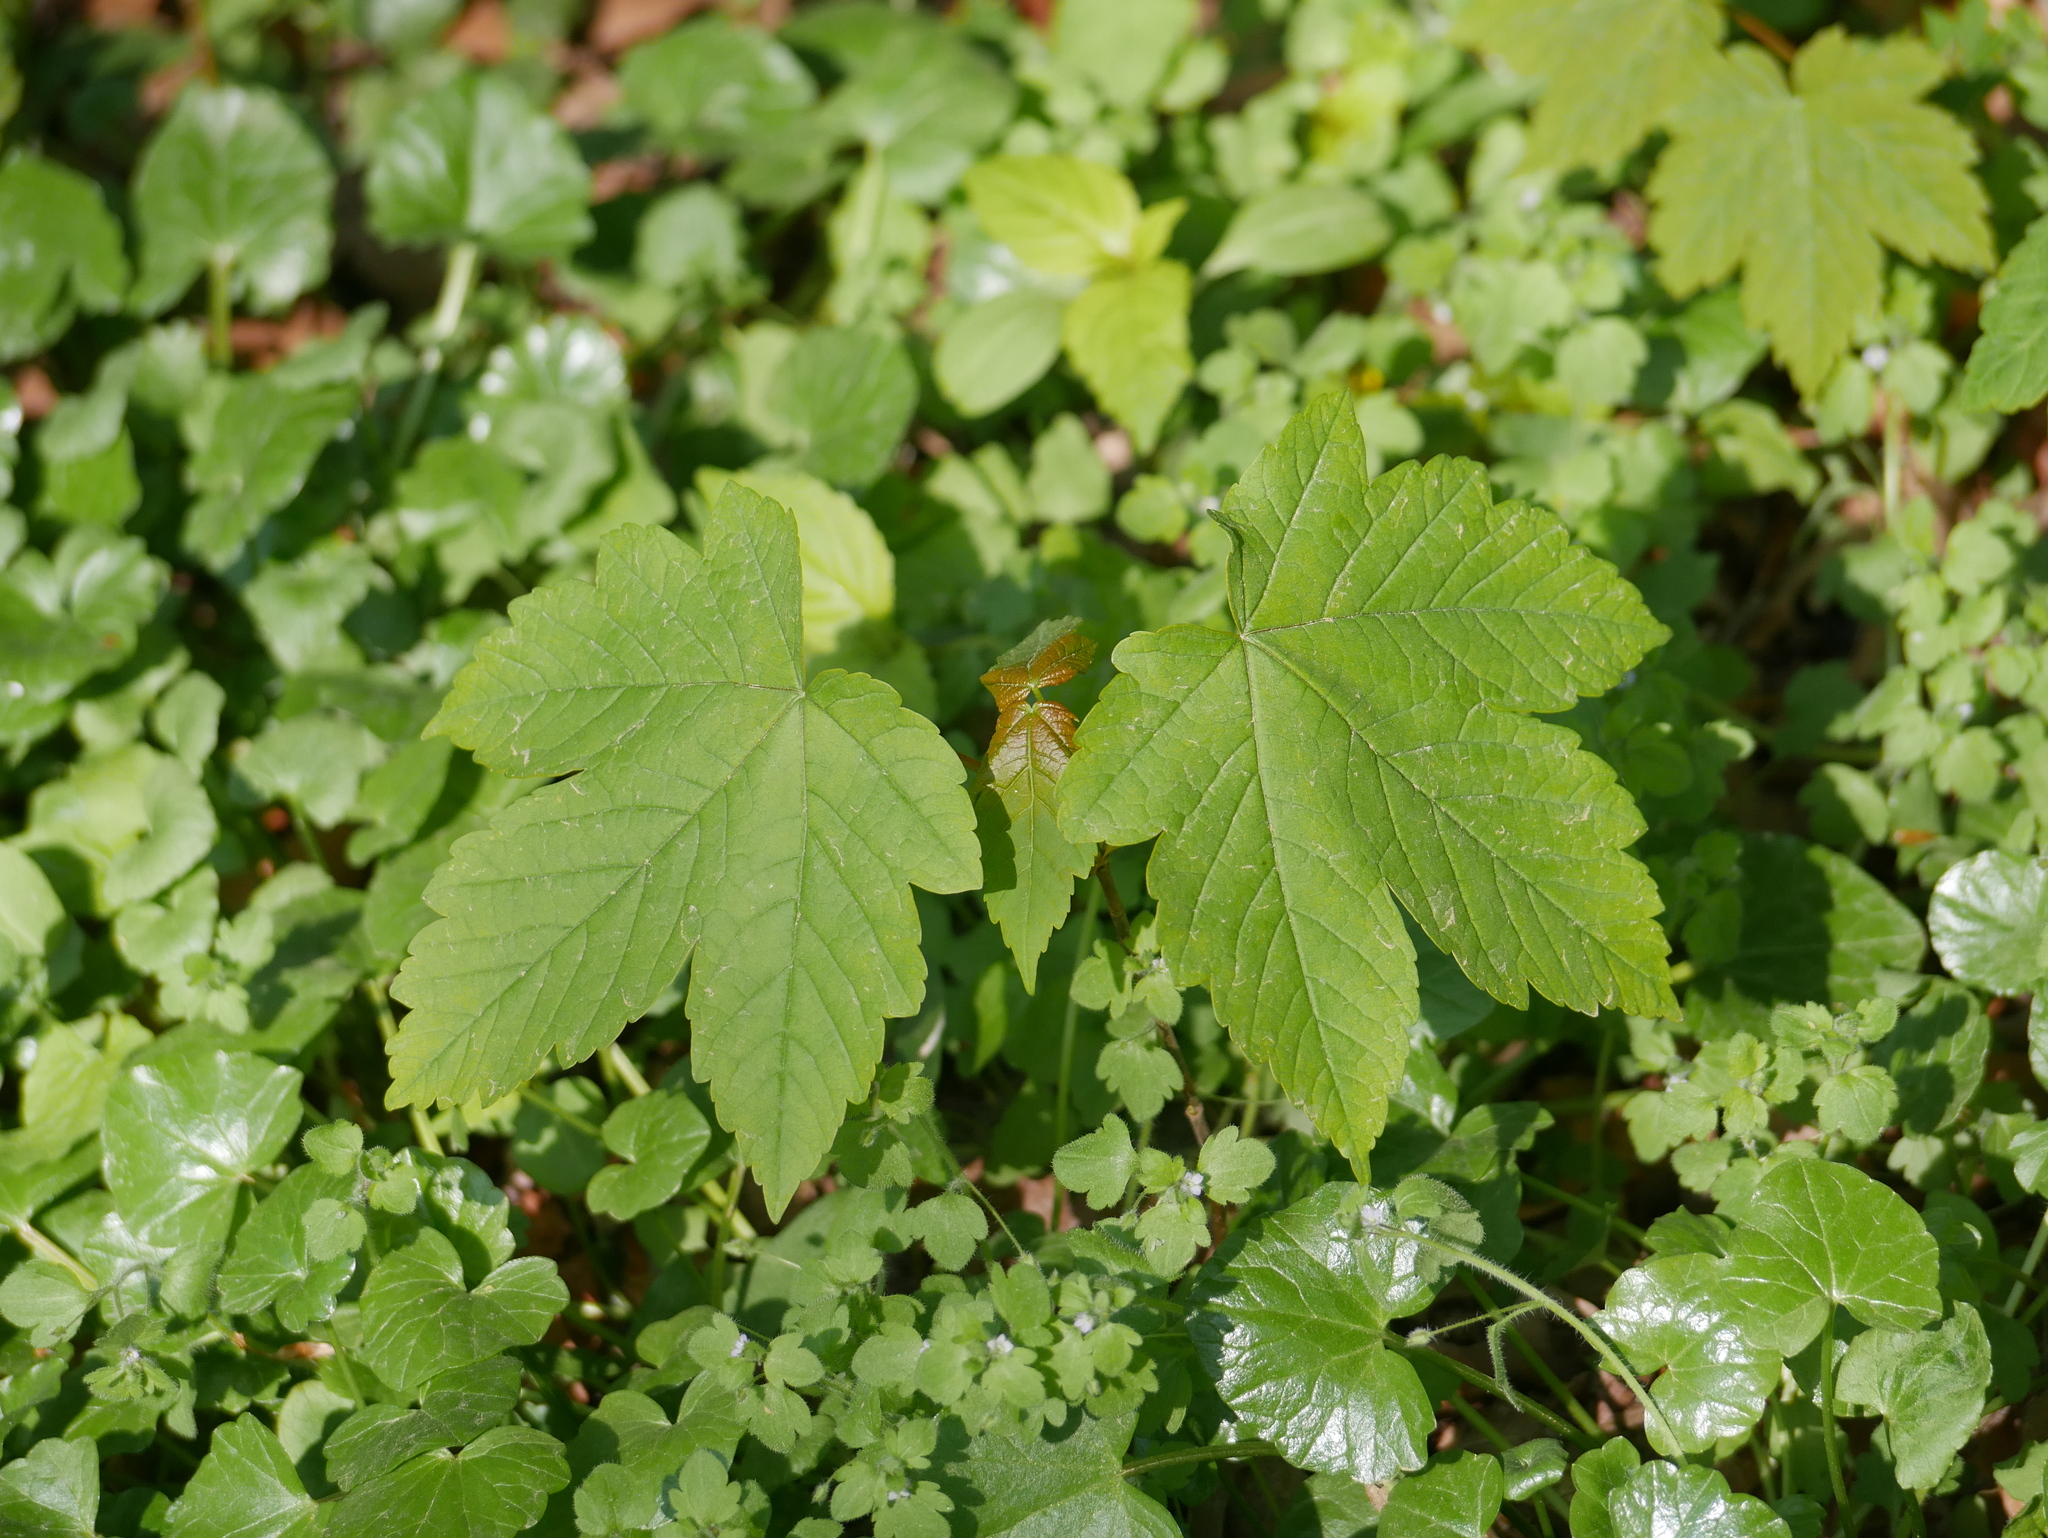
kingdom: Plantae
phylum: Tracheophyta
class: Magnoliopsida
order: Sapindales
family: Sapindaceae
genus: Acer
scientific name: Acer pseudoplatanus
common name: Sycamore
